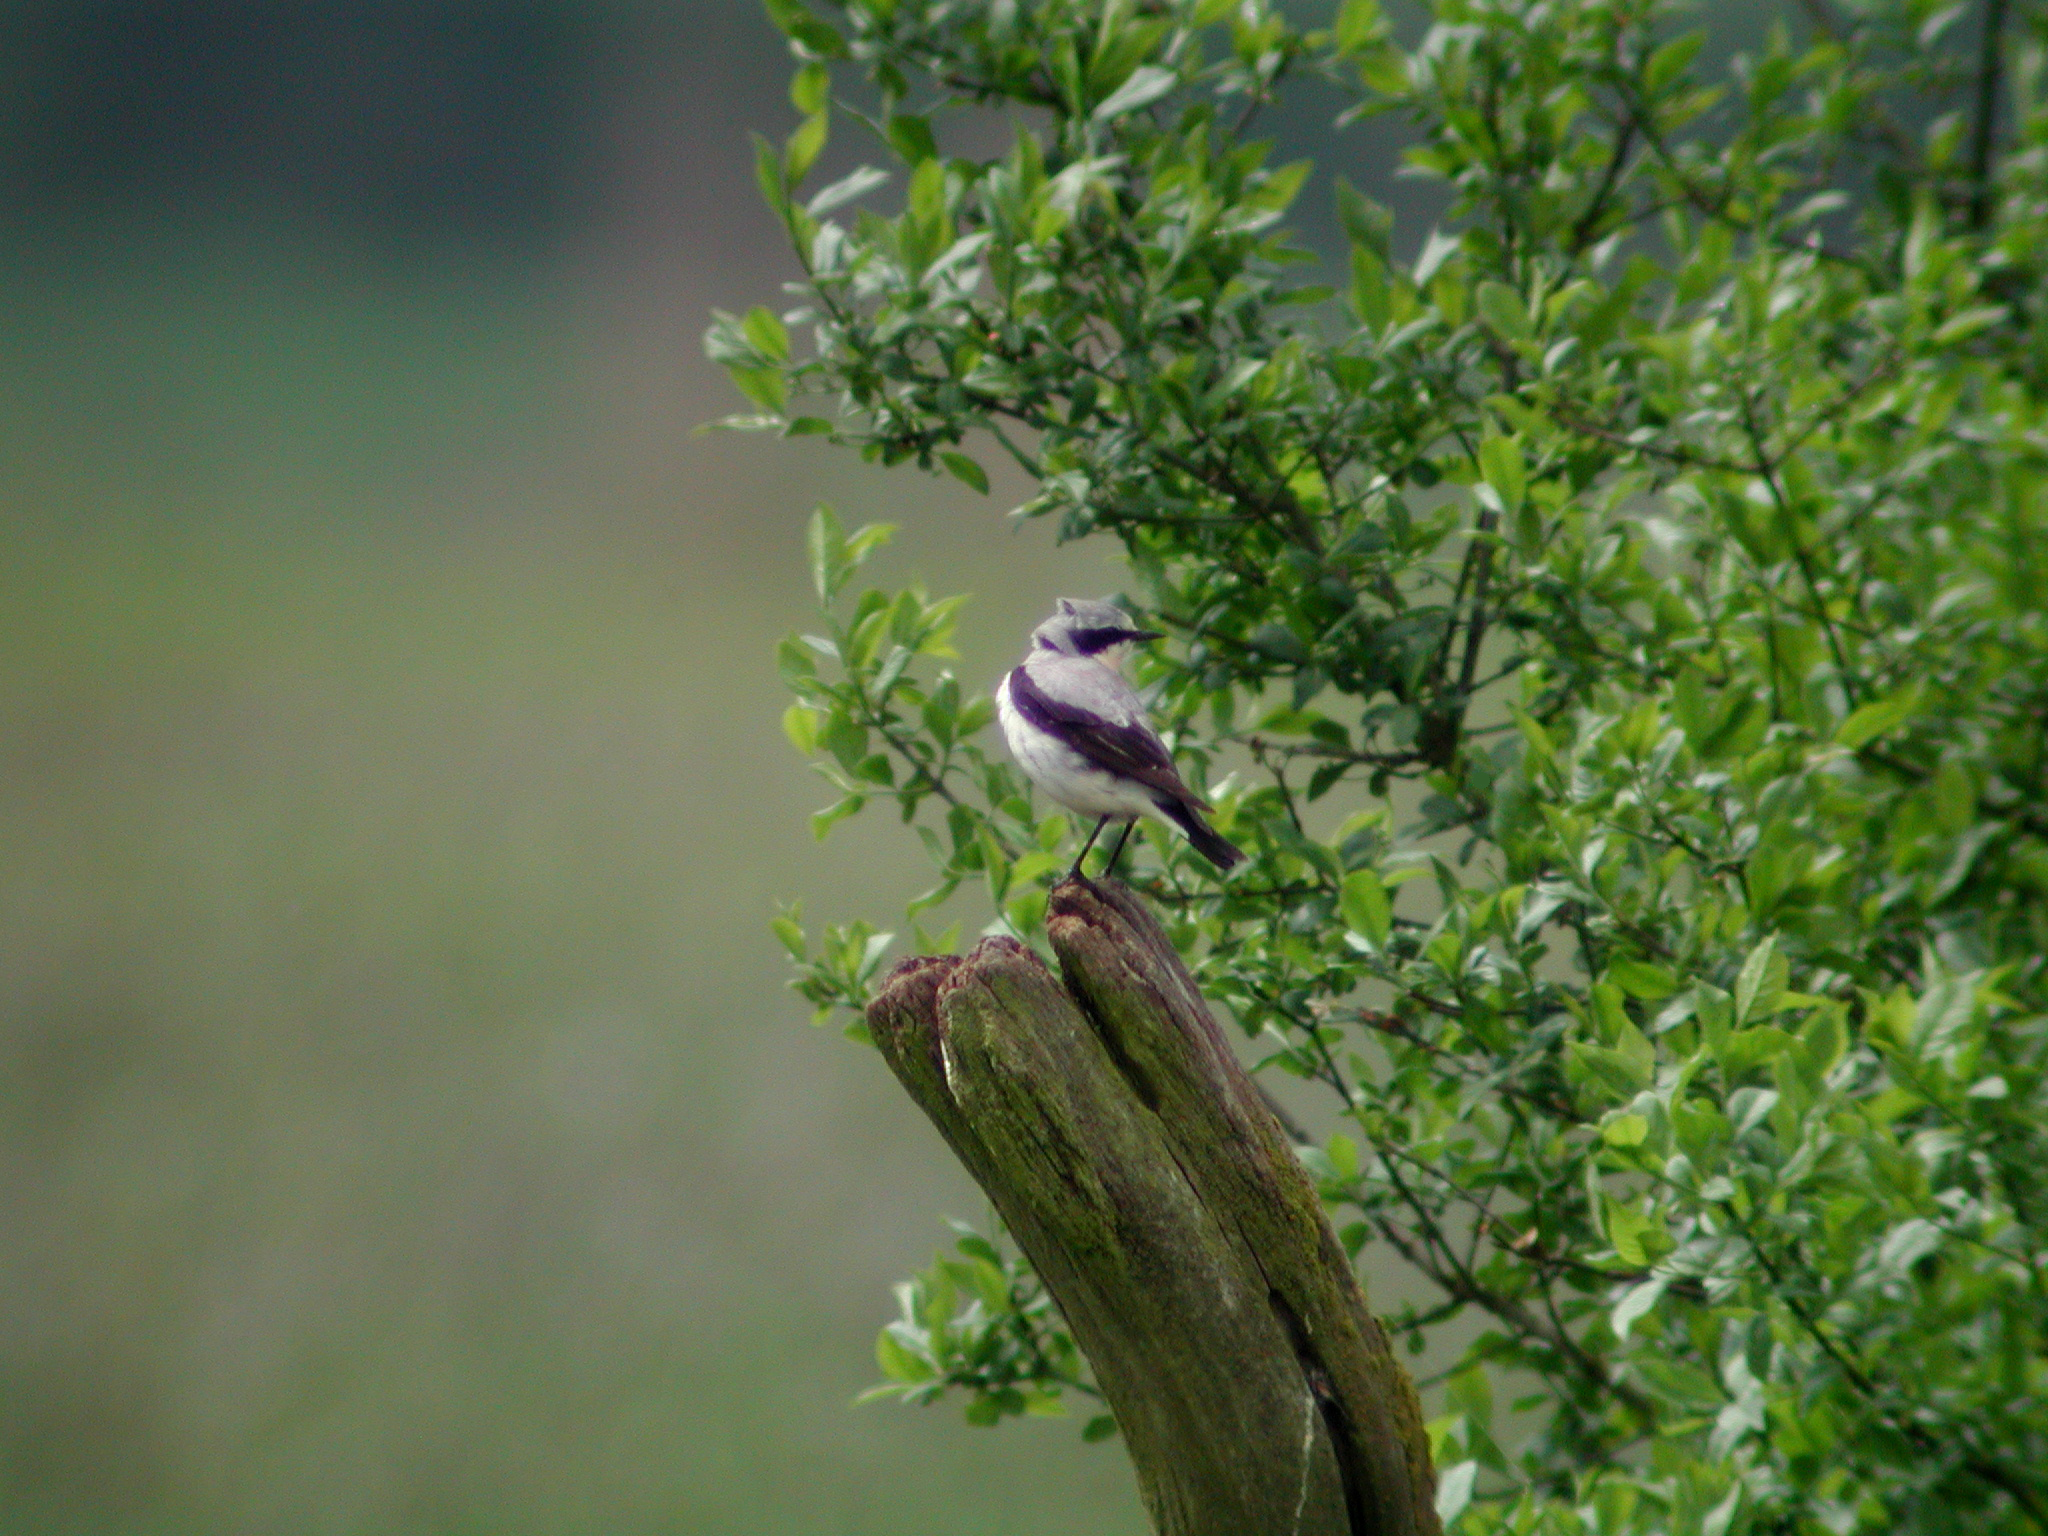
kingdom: Animalia
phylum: Chordata
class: Aves
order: Passeriformes
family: Muscicapidae
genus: Oenanthe
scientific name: Oenanthe oenanthe
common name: Northern wheatear
